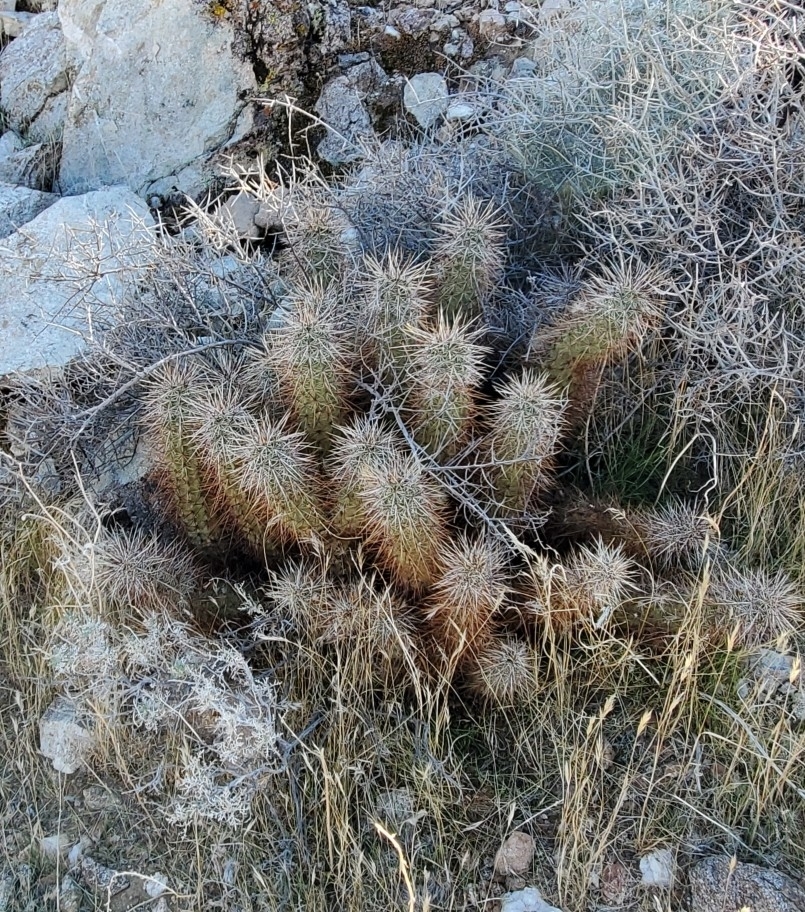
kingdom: Plantae
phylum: Tracheophyta
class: Magnoliopsida
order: Caryophyllales
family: Cactaceae
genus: Echinocereus
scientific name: Echinocereus engelmannii
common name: Engelmann's hedgehog cactus
